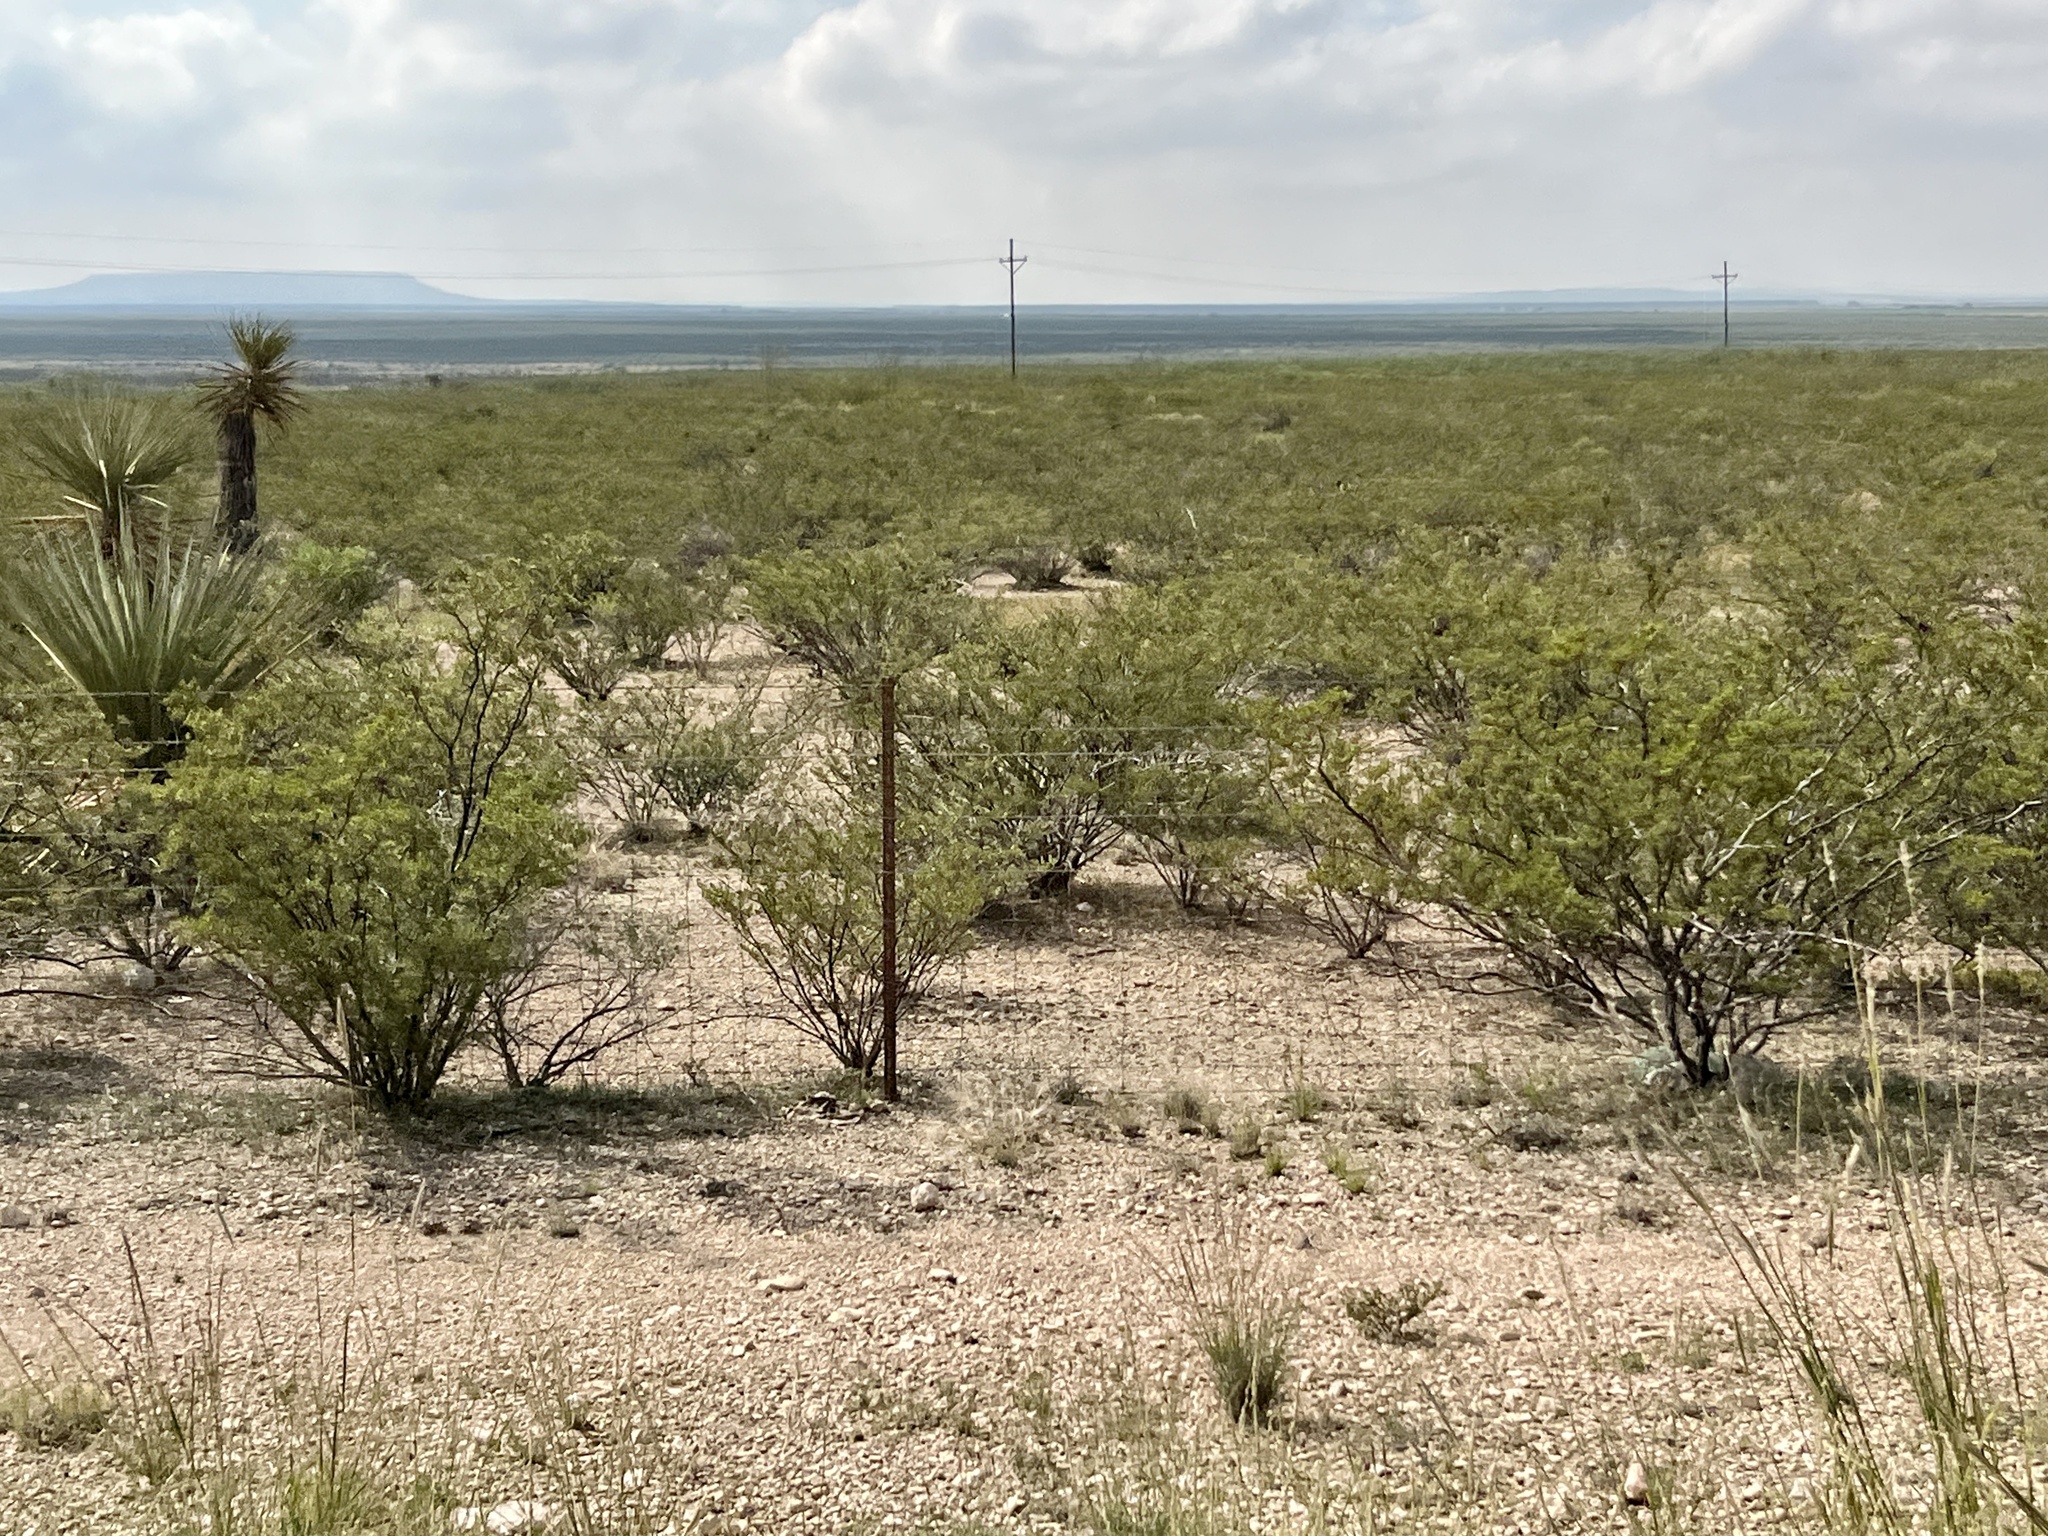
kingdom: Plantae
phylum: Tracheophyta
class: Magnoliopsida
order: Zygophyllales
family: Zygophyllaceae
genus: Larrea
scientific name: Larrea tridentata
